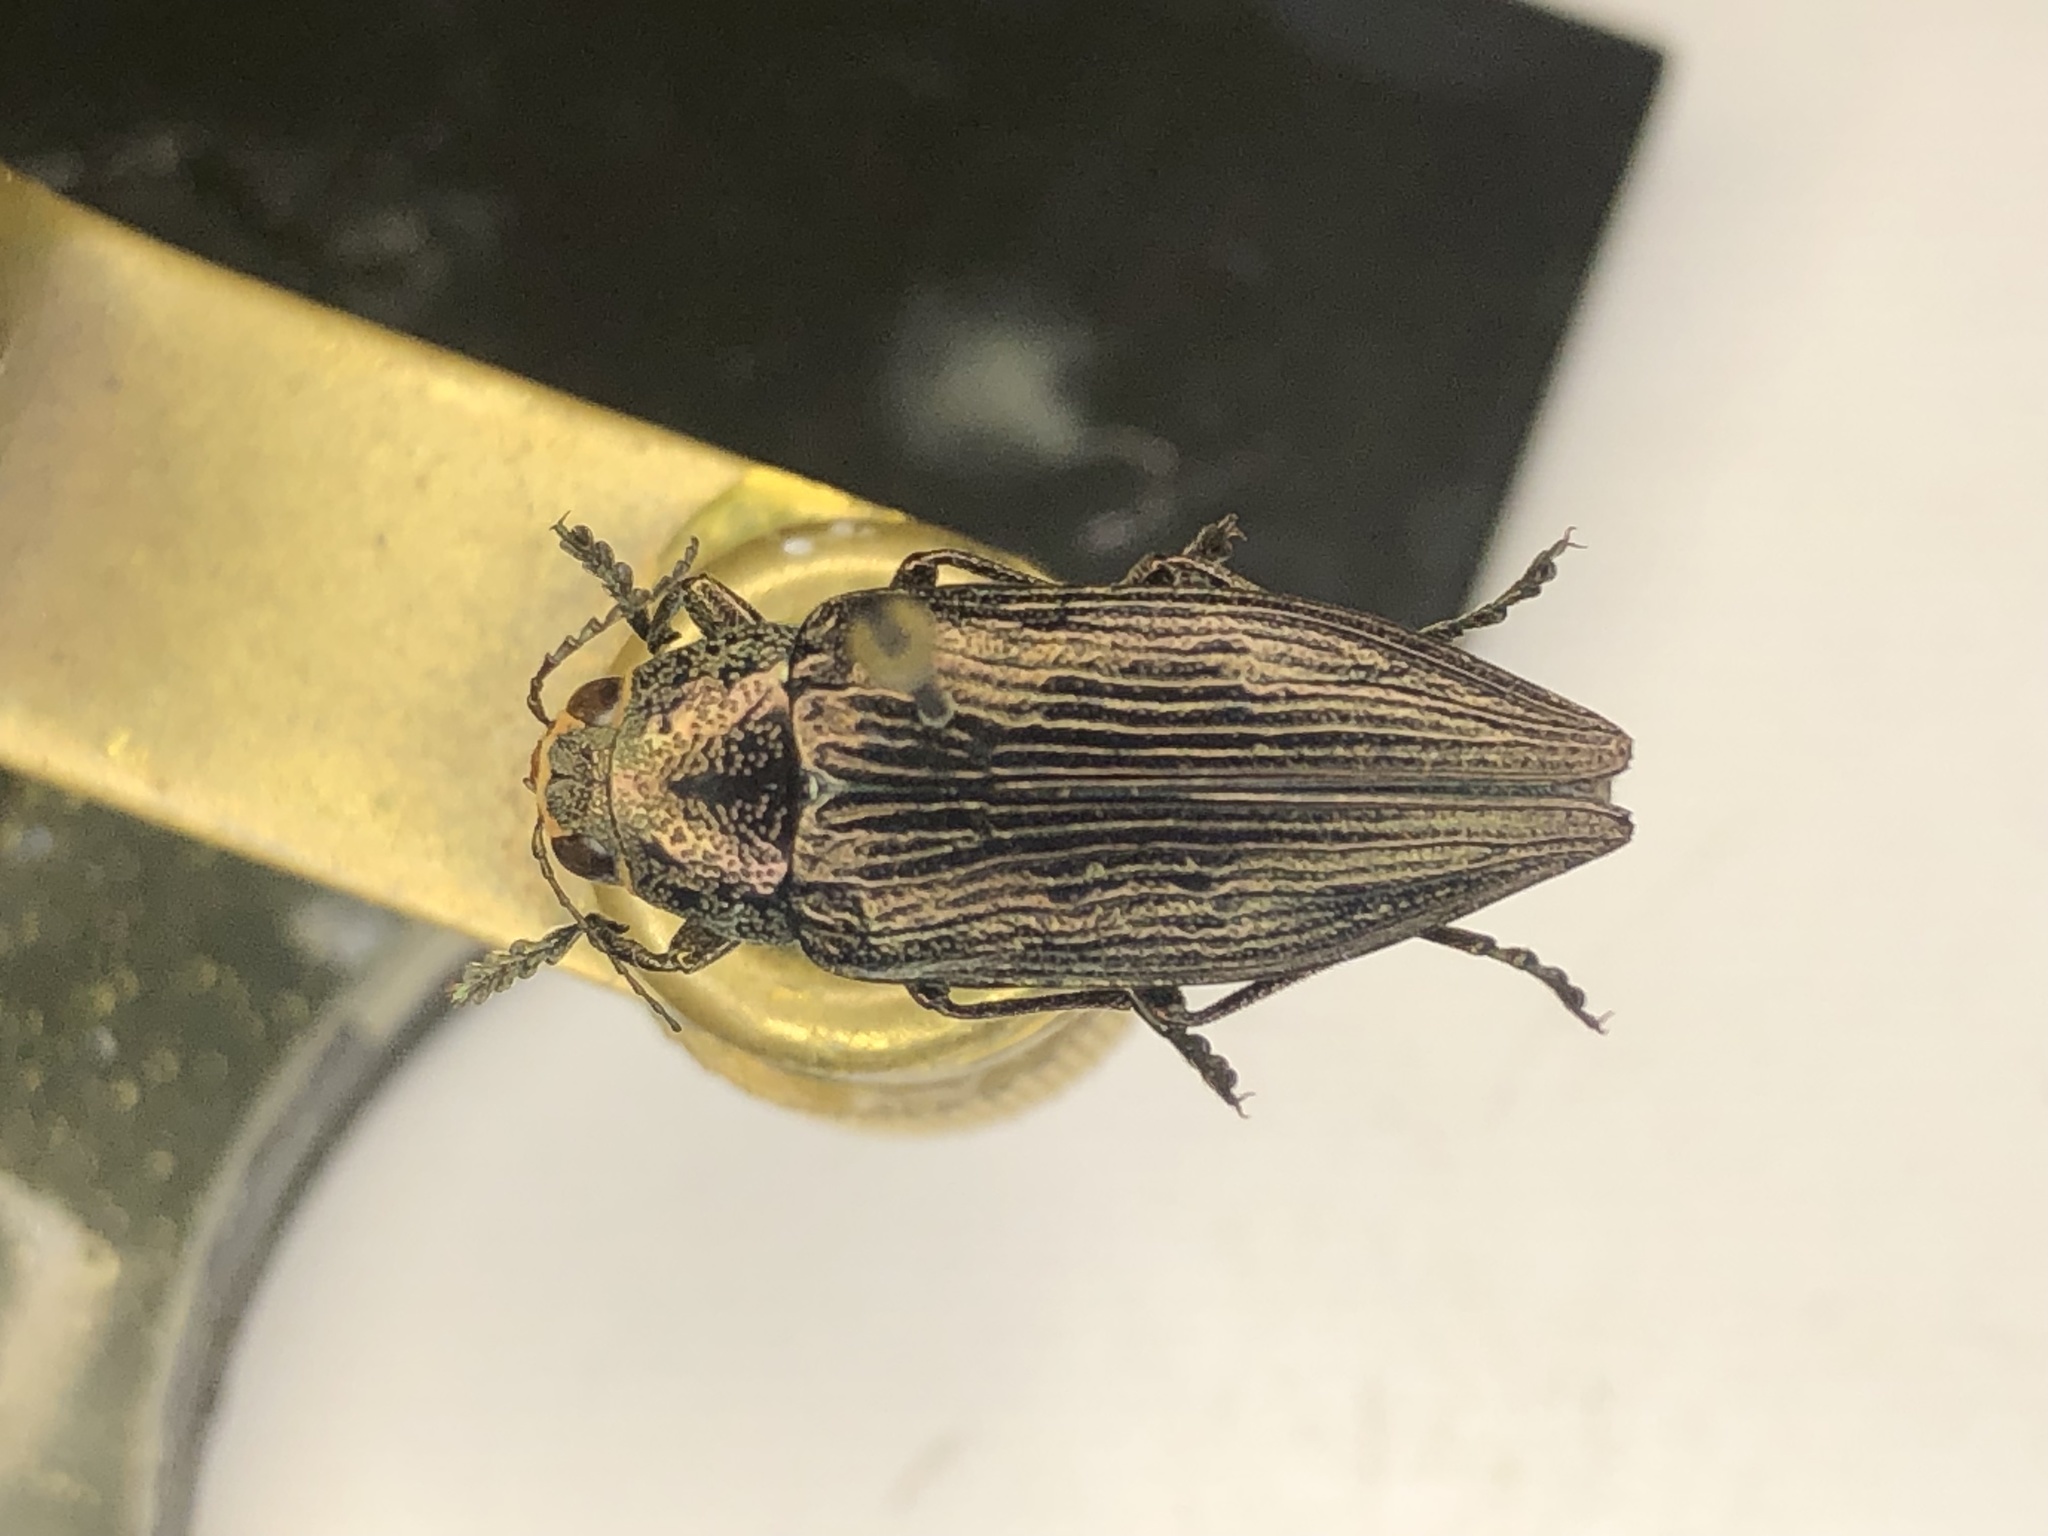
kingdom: Animalia
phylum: Arthropoda
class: Insecta
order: Coleoptera
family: Buprestidae
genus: Buprestis
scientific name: Buprestis maculativentris
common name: Spotted-belly buprestid beetle
